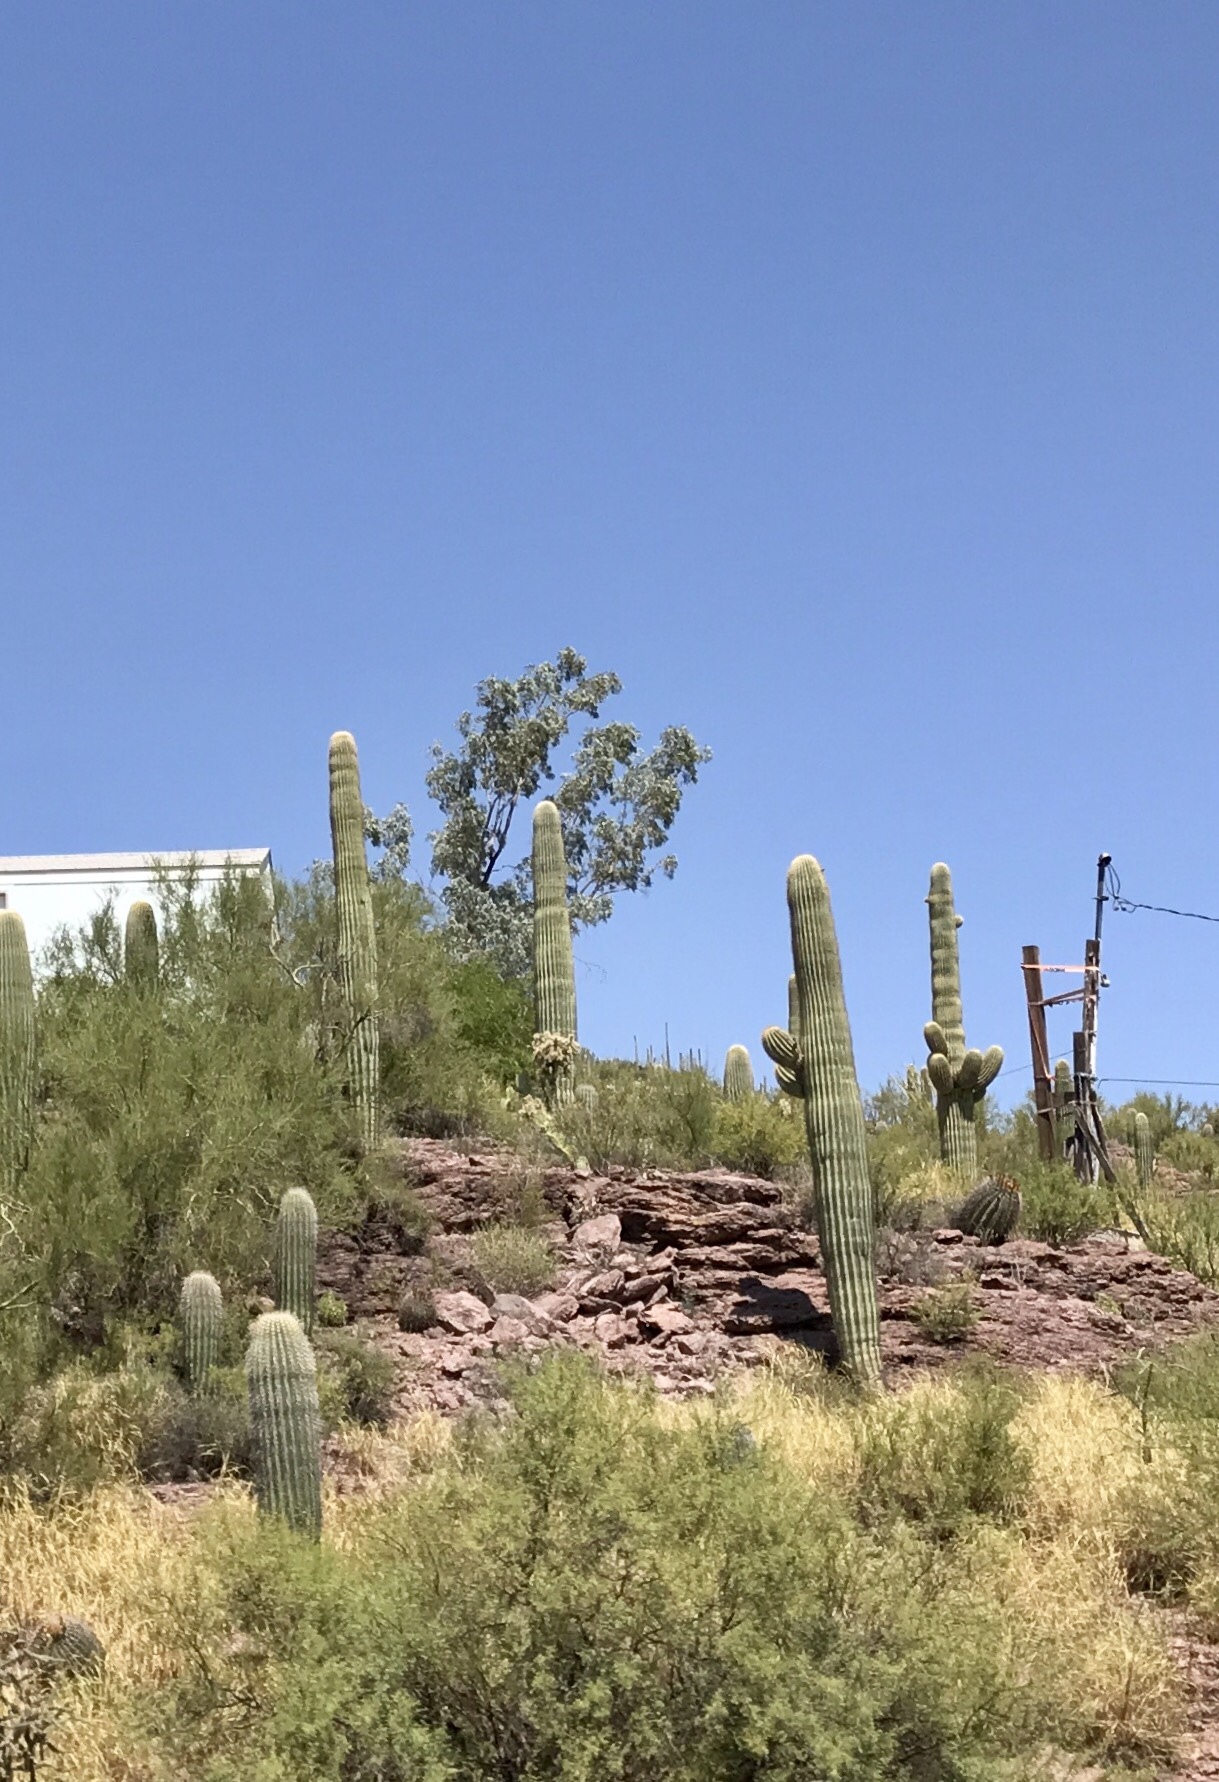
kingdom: Plantae
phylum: Tracheophyta
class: Magnoliopsida
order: Caryophyllales
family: Cactaceae
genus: Carnegiea
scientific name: Carnegiea gigantea
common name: Saguaro
